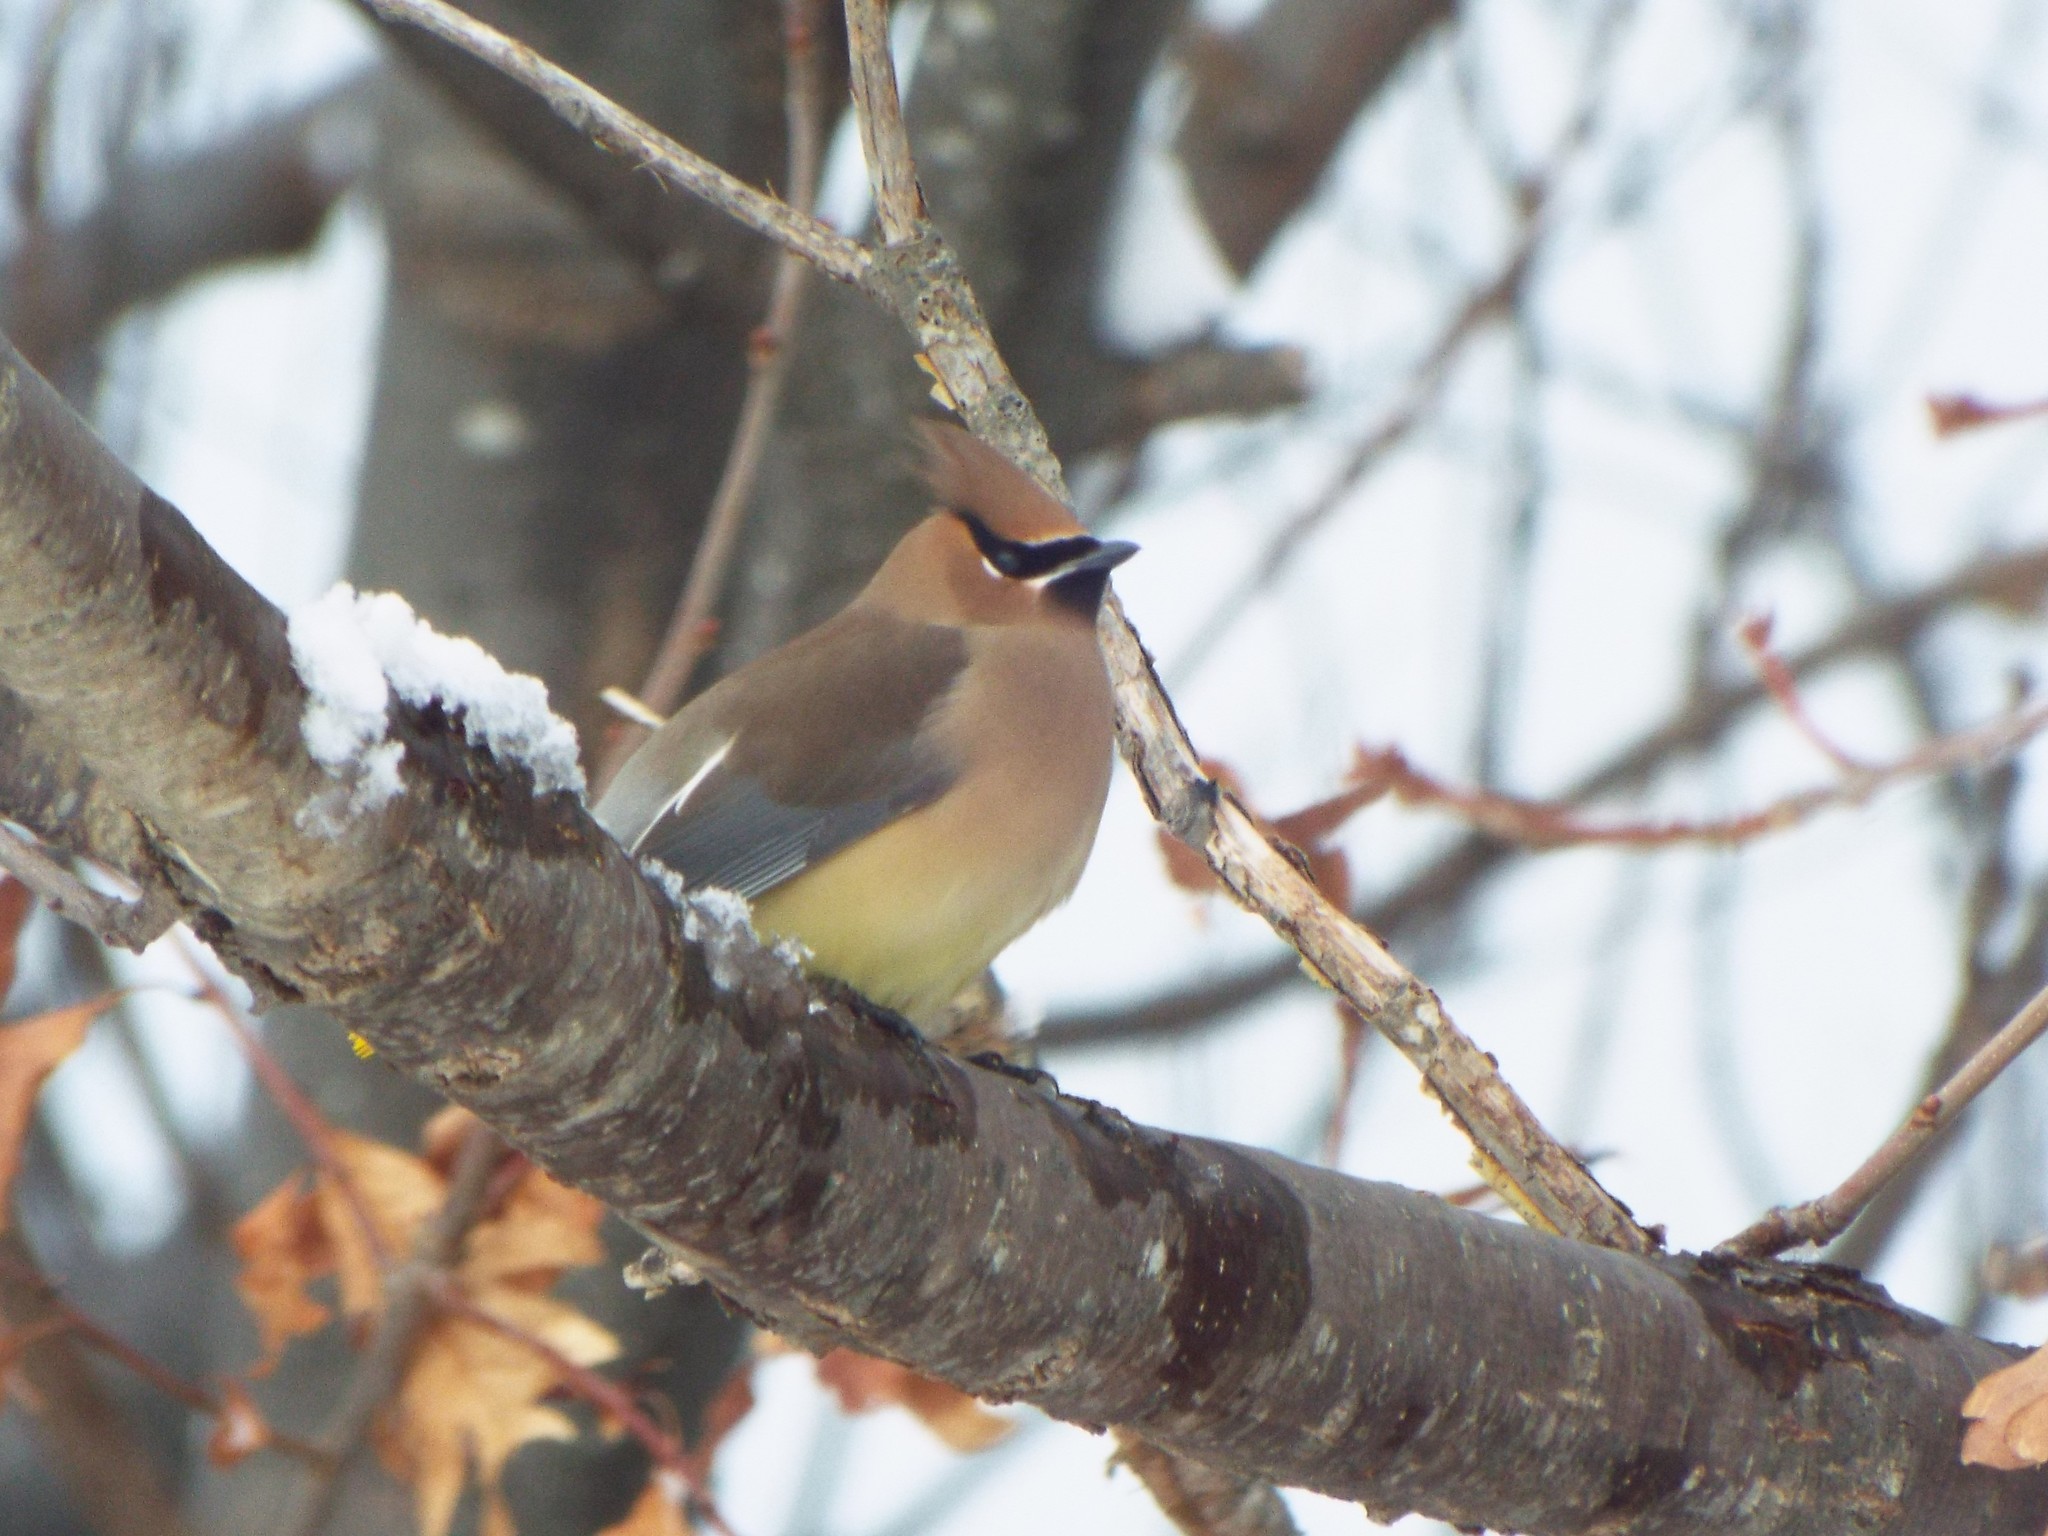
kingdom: Animalia
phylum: Chordata
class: Aves
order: Passeriformes
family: Bombycillidae
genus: Bombycilla
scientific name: Bombycilla cedrorum
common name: Cedar waxwing
